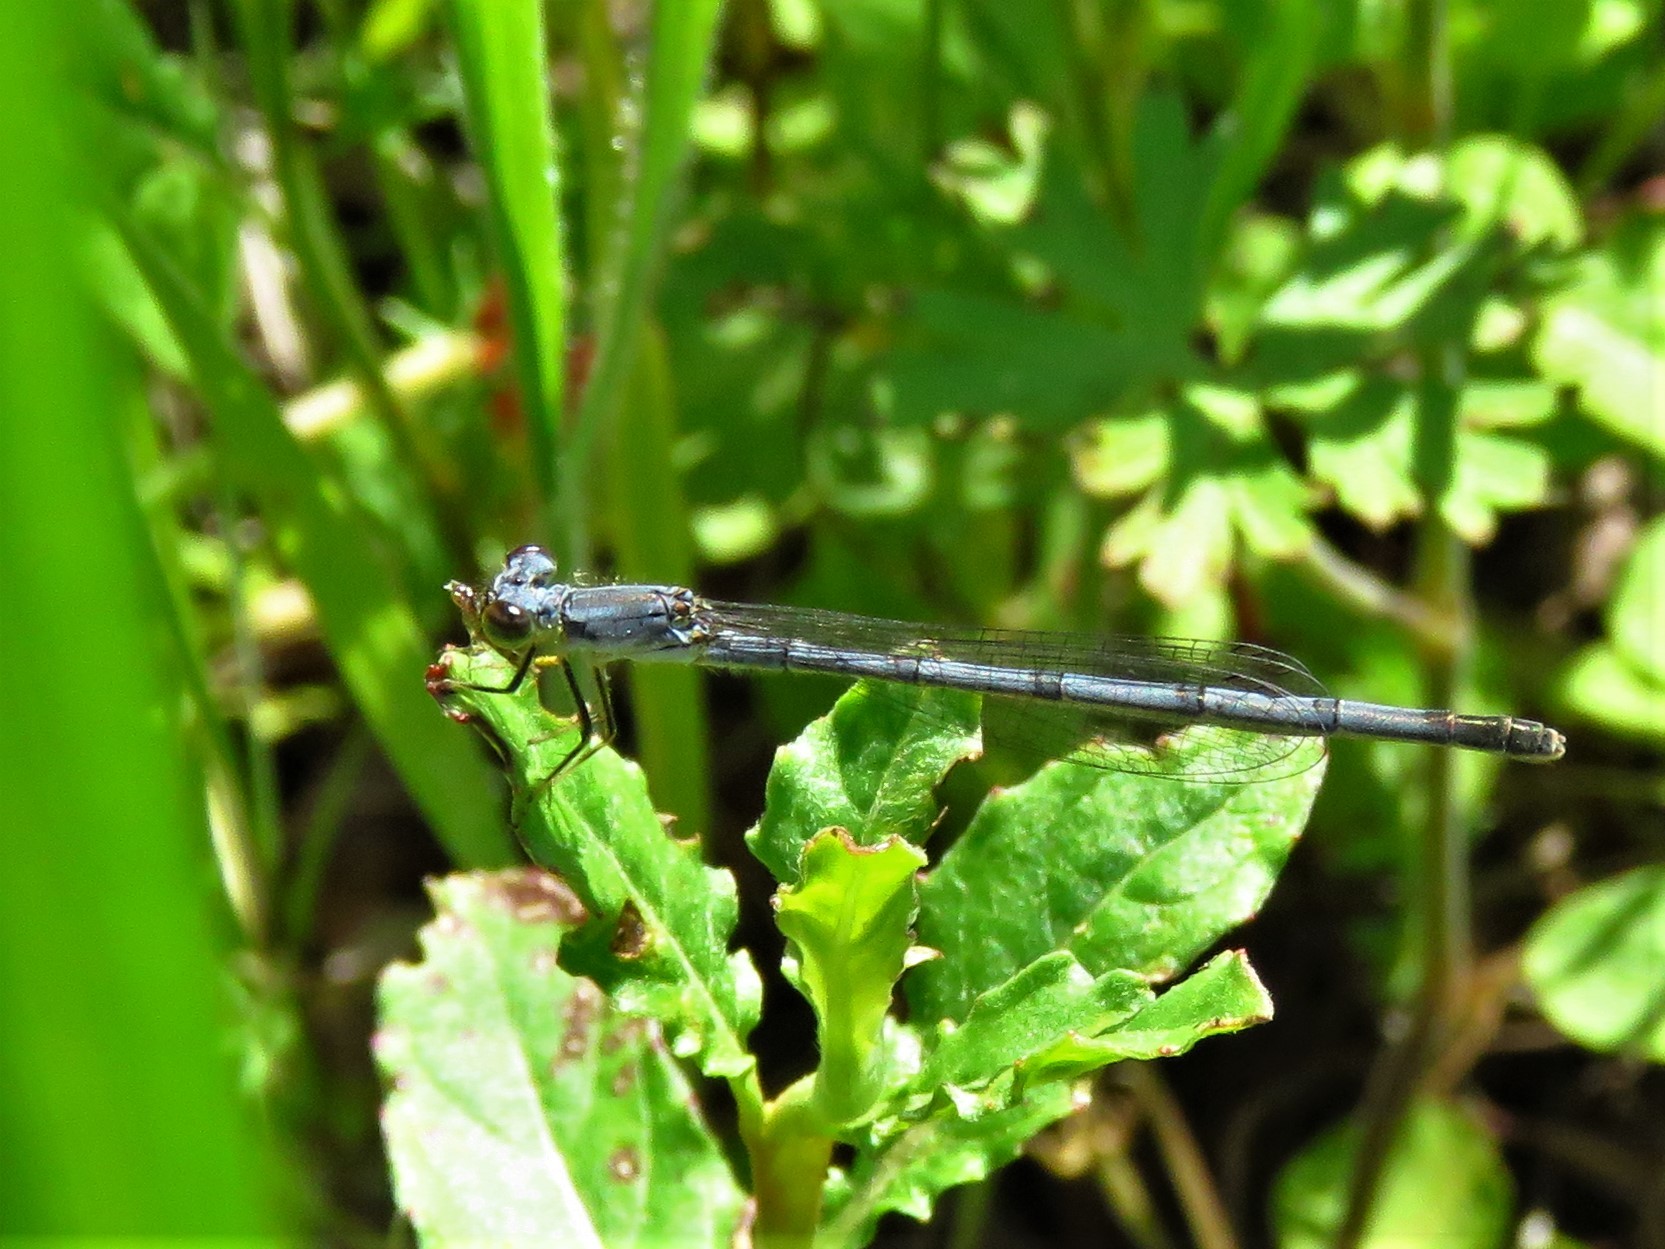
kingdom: Animalia
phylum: Arthropoda
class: Insecta
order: Odonata
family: Coenagrionidae
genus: Ischnura
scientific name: Ischnura posita
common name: Fragile forktail
